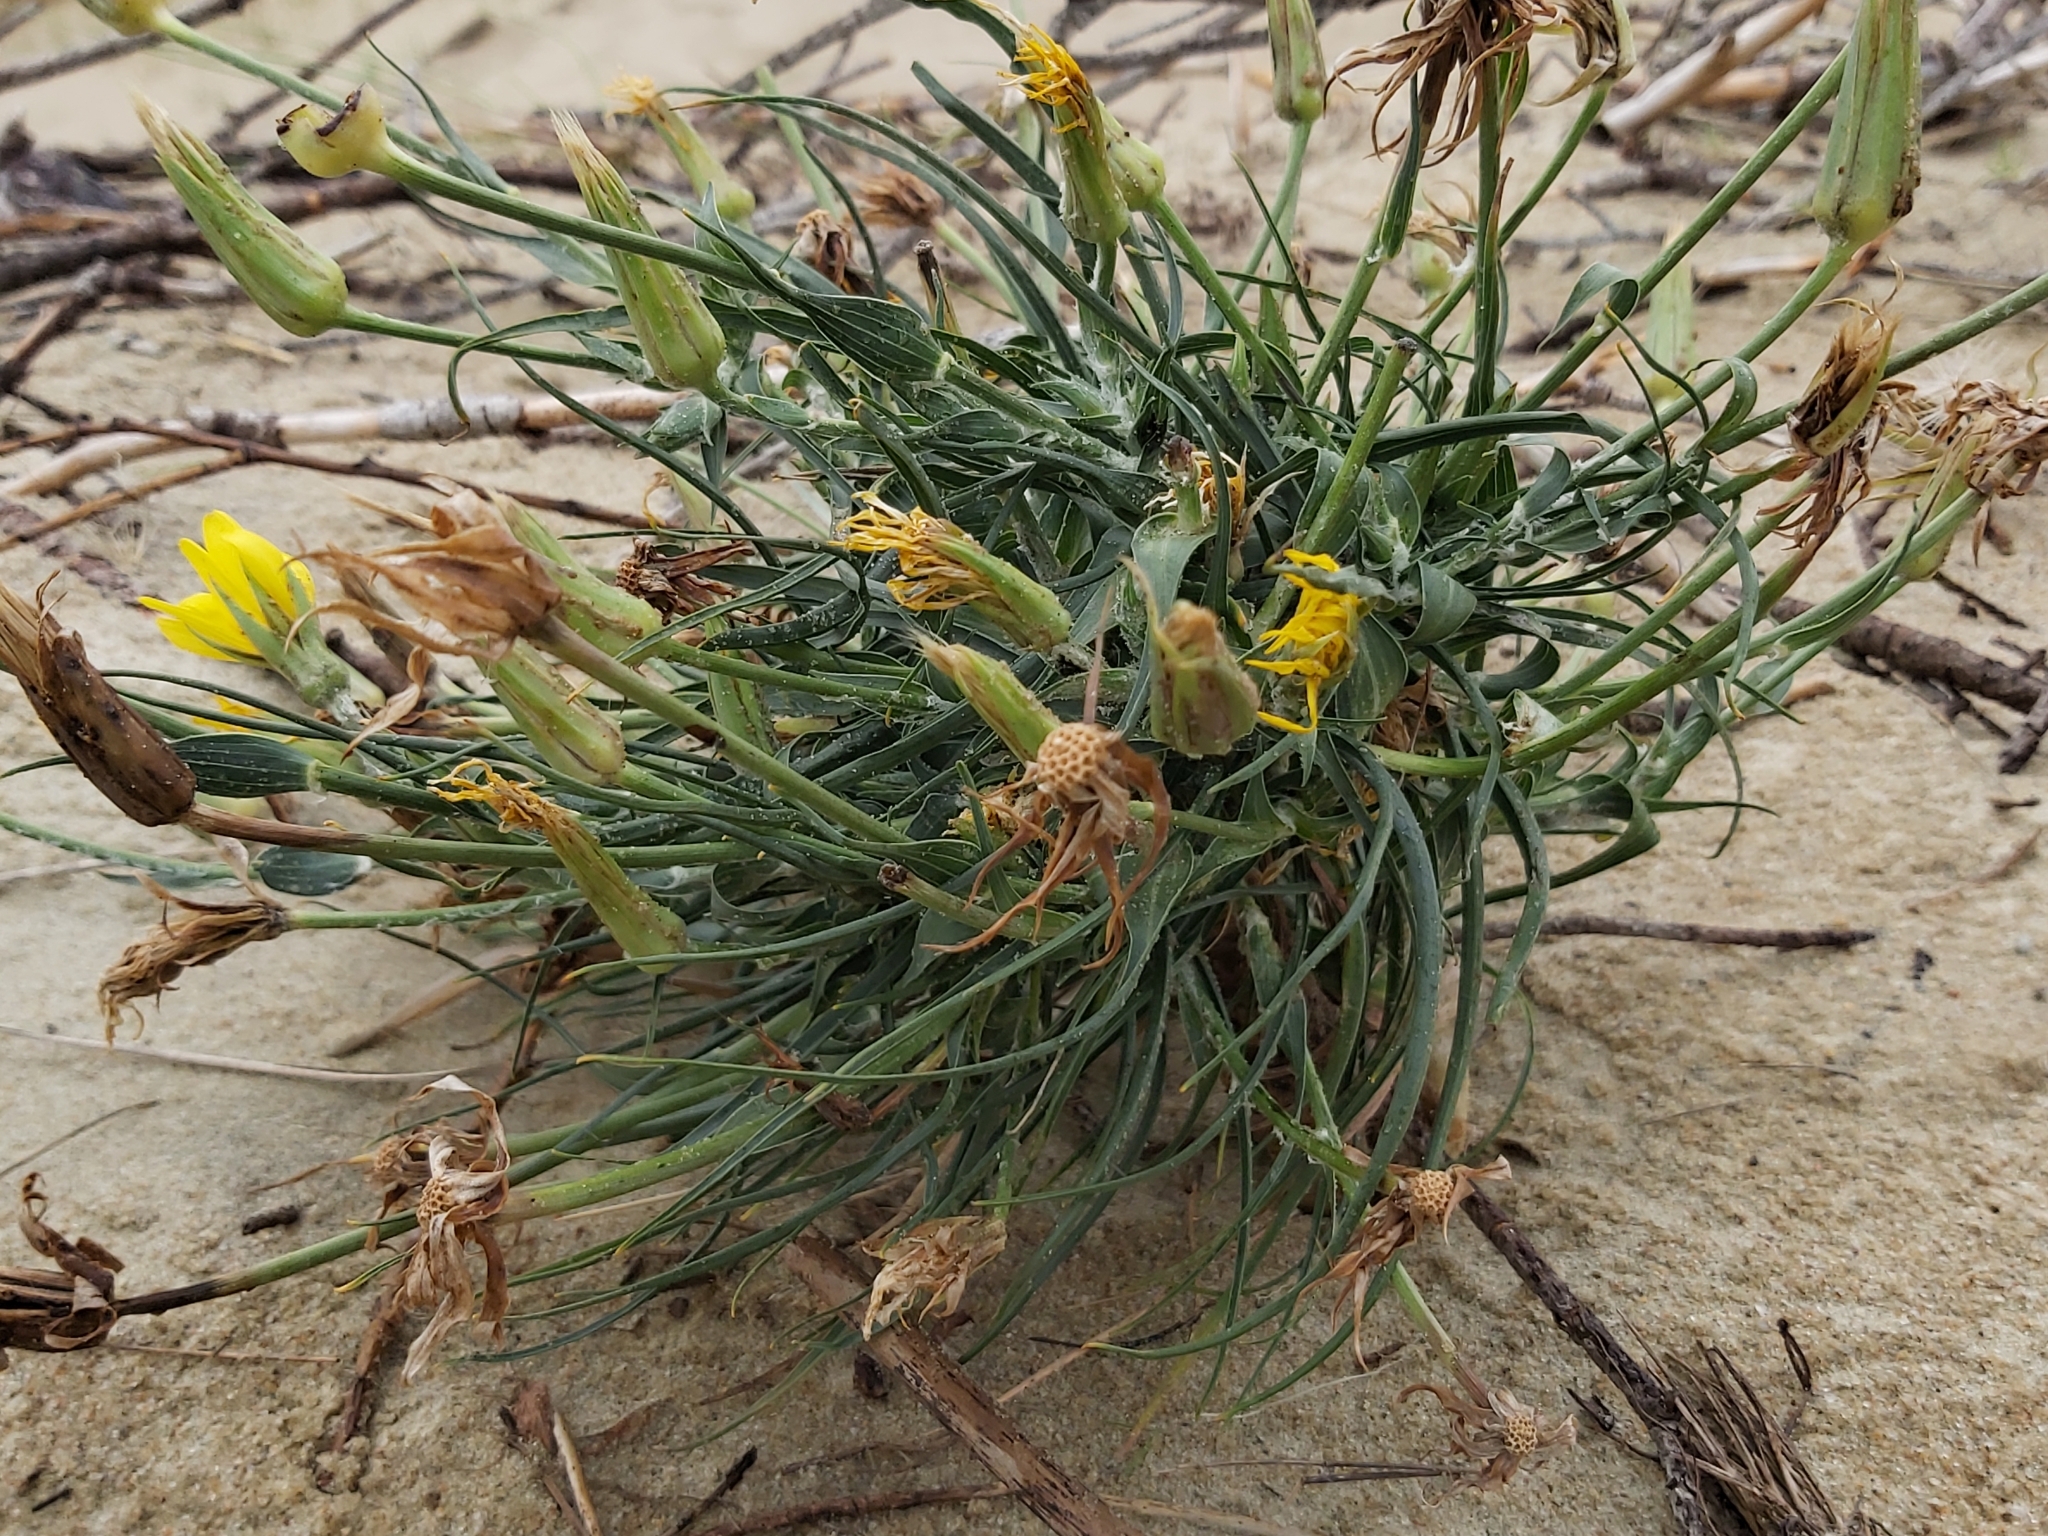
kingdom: Plantae
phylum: Tracheophyta
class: Magnoliopsida
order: Asterales
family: Asteraceae
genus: Tragopogon
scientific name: Tragopogon heterospermus
